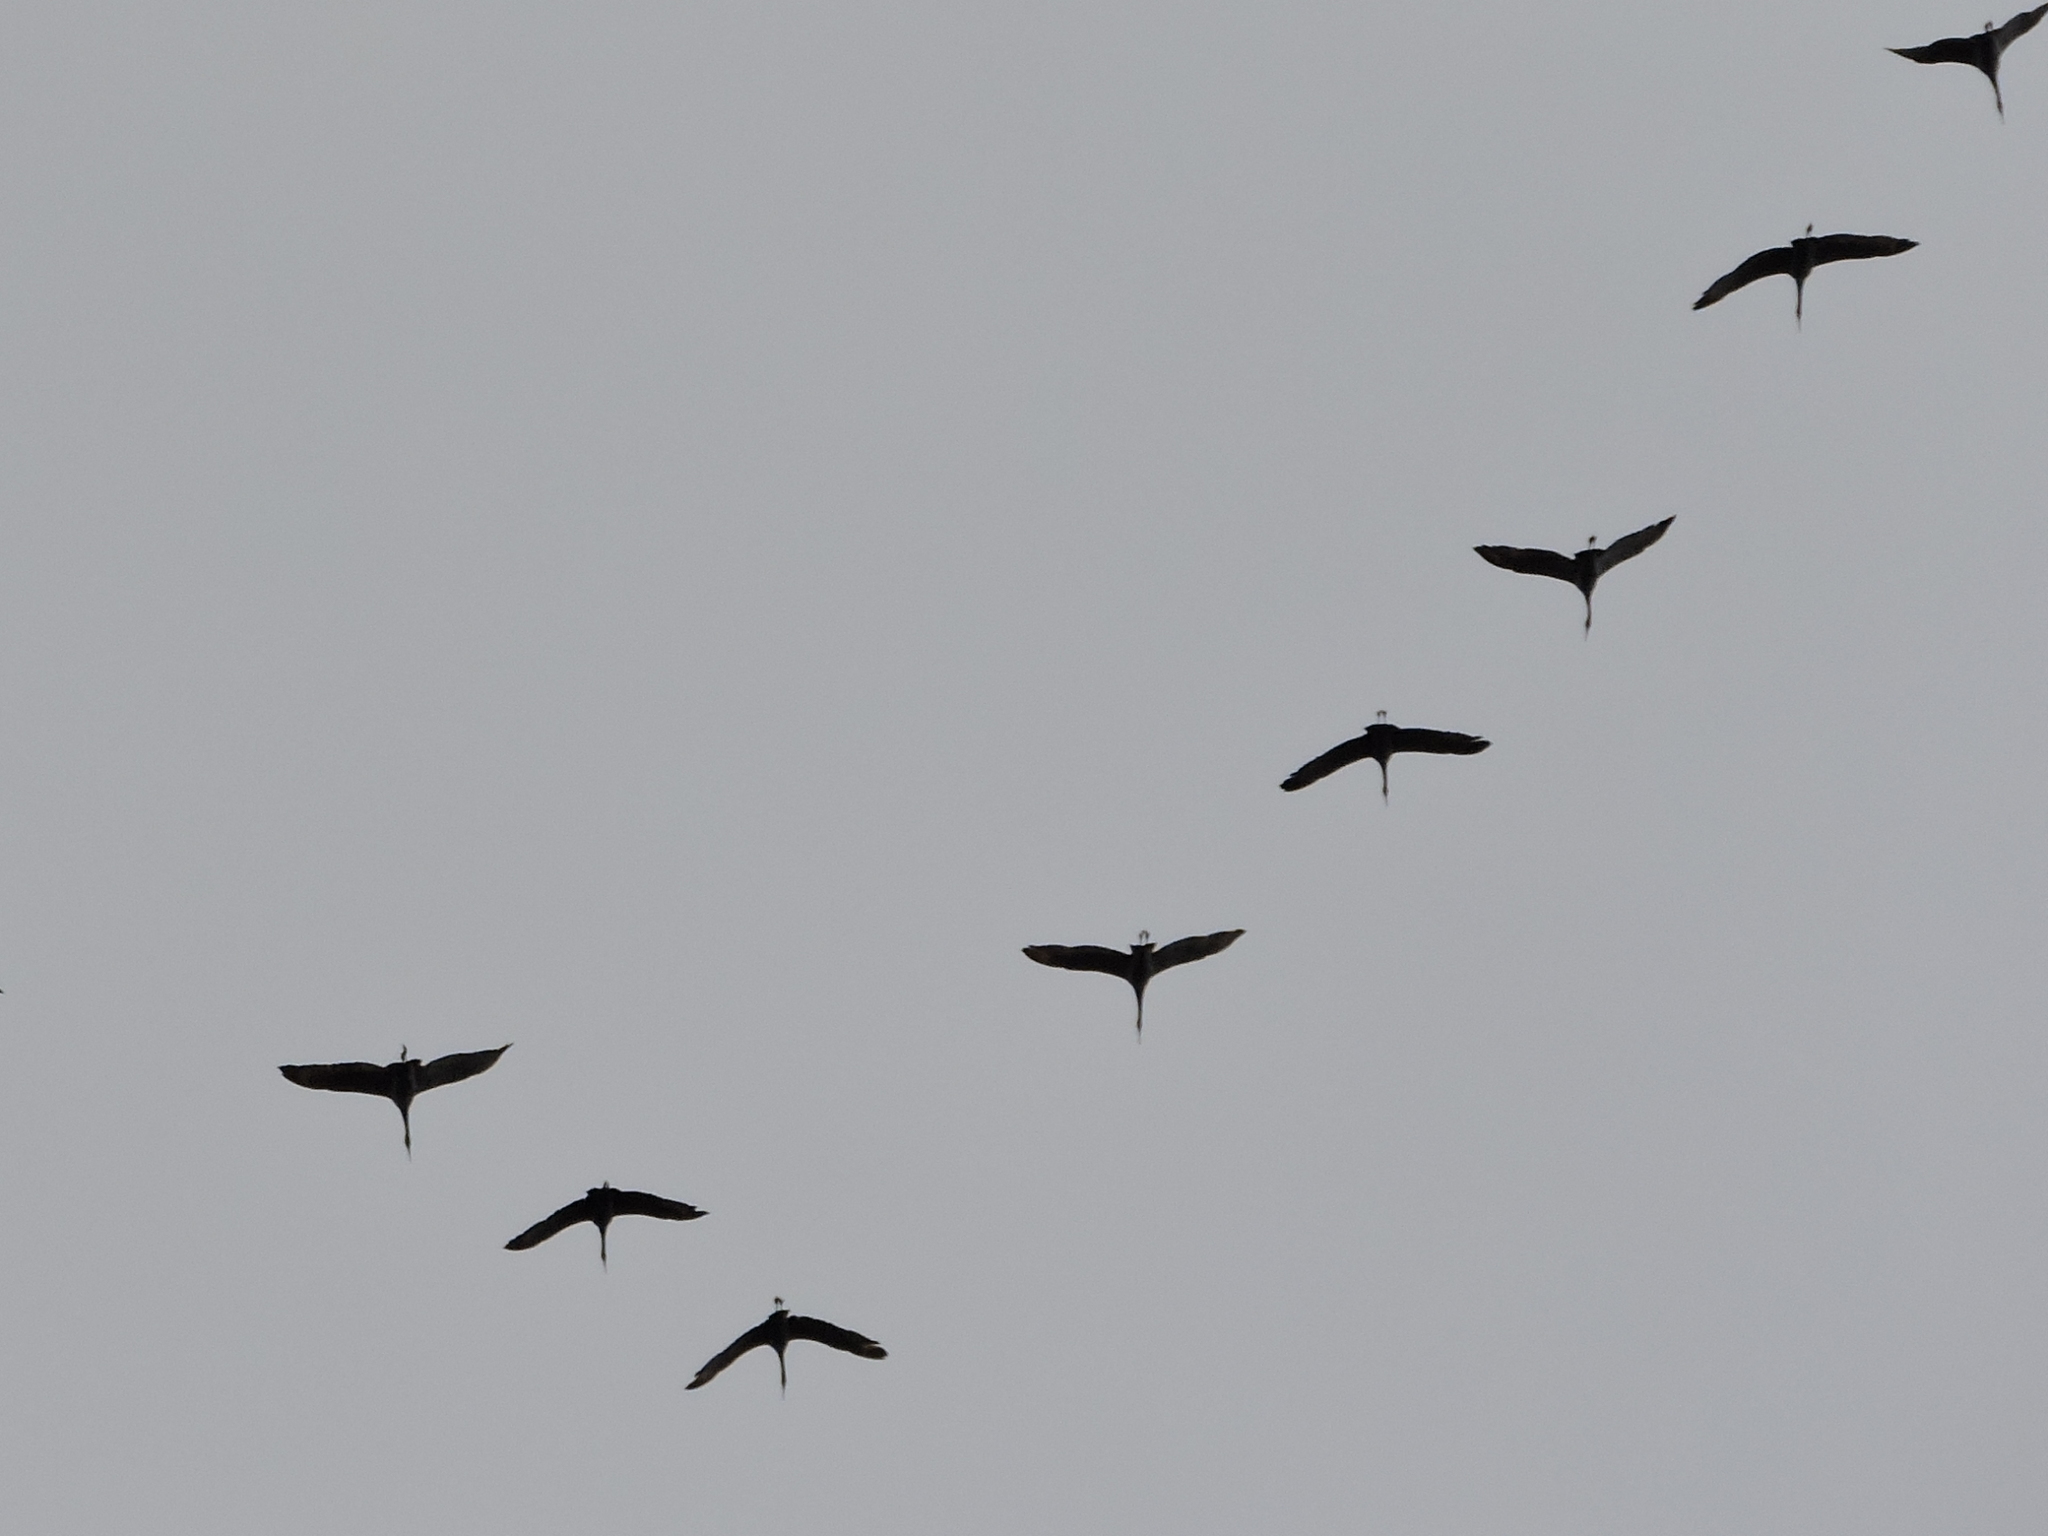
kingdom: Animalia
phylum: Chordata
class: Aves
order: Gruiformes
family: Gruidae
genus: Grus
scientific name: Grus canadensis
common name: Sandhill crane
